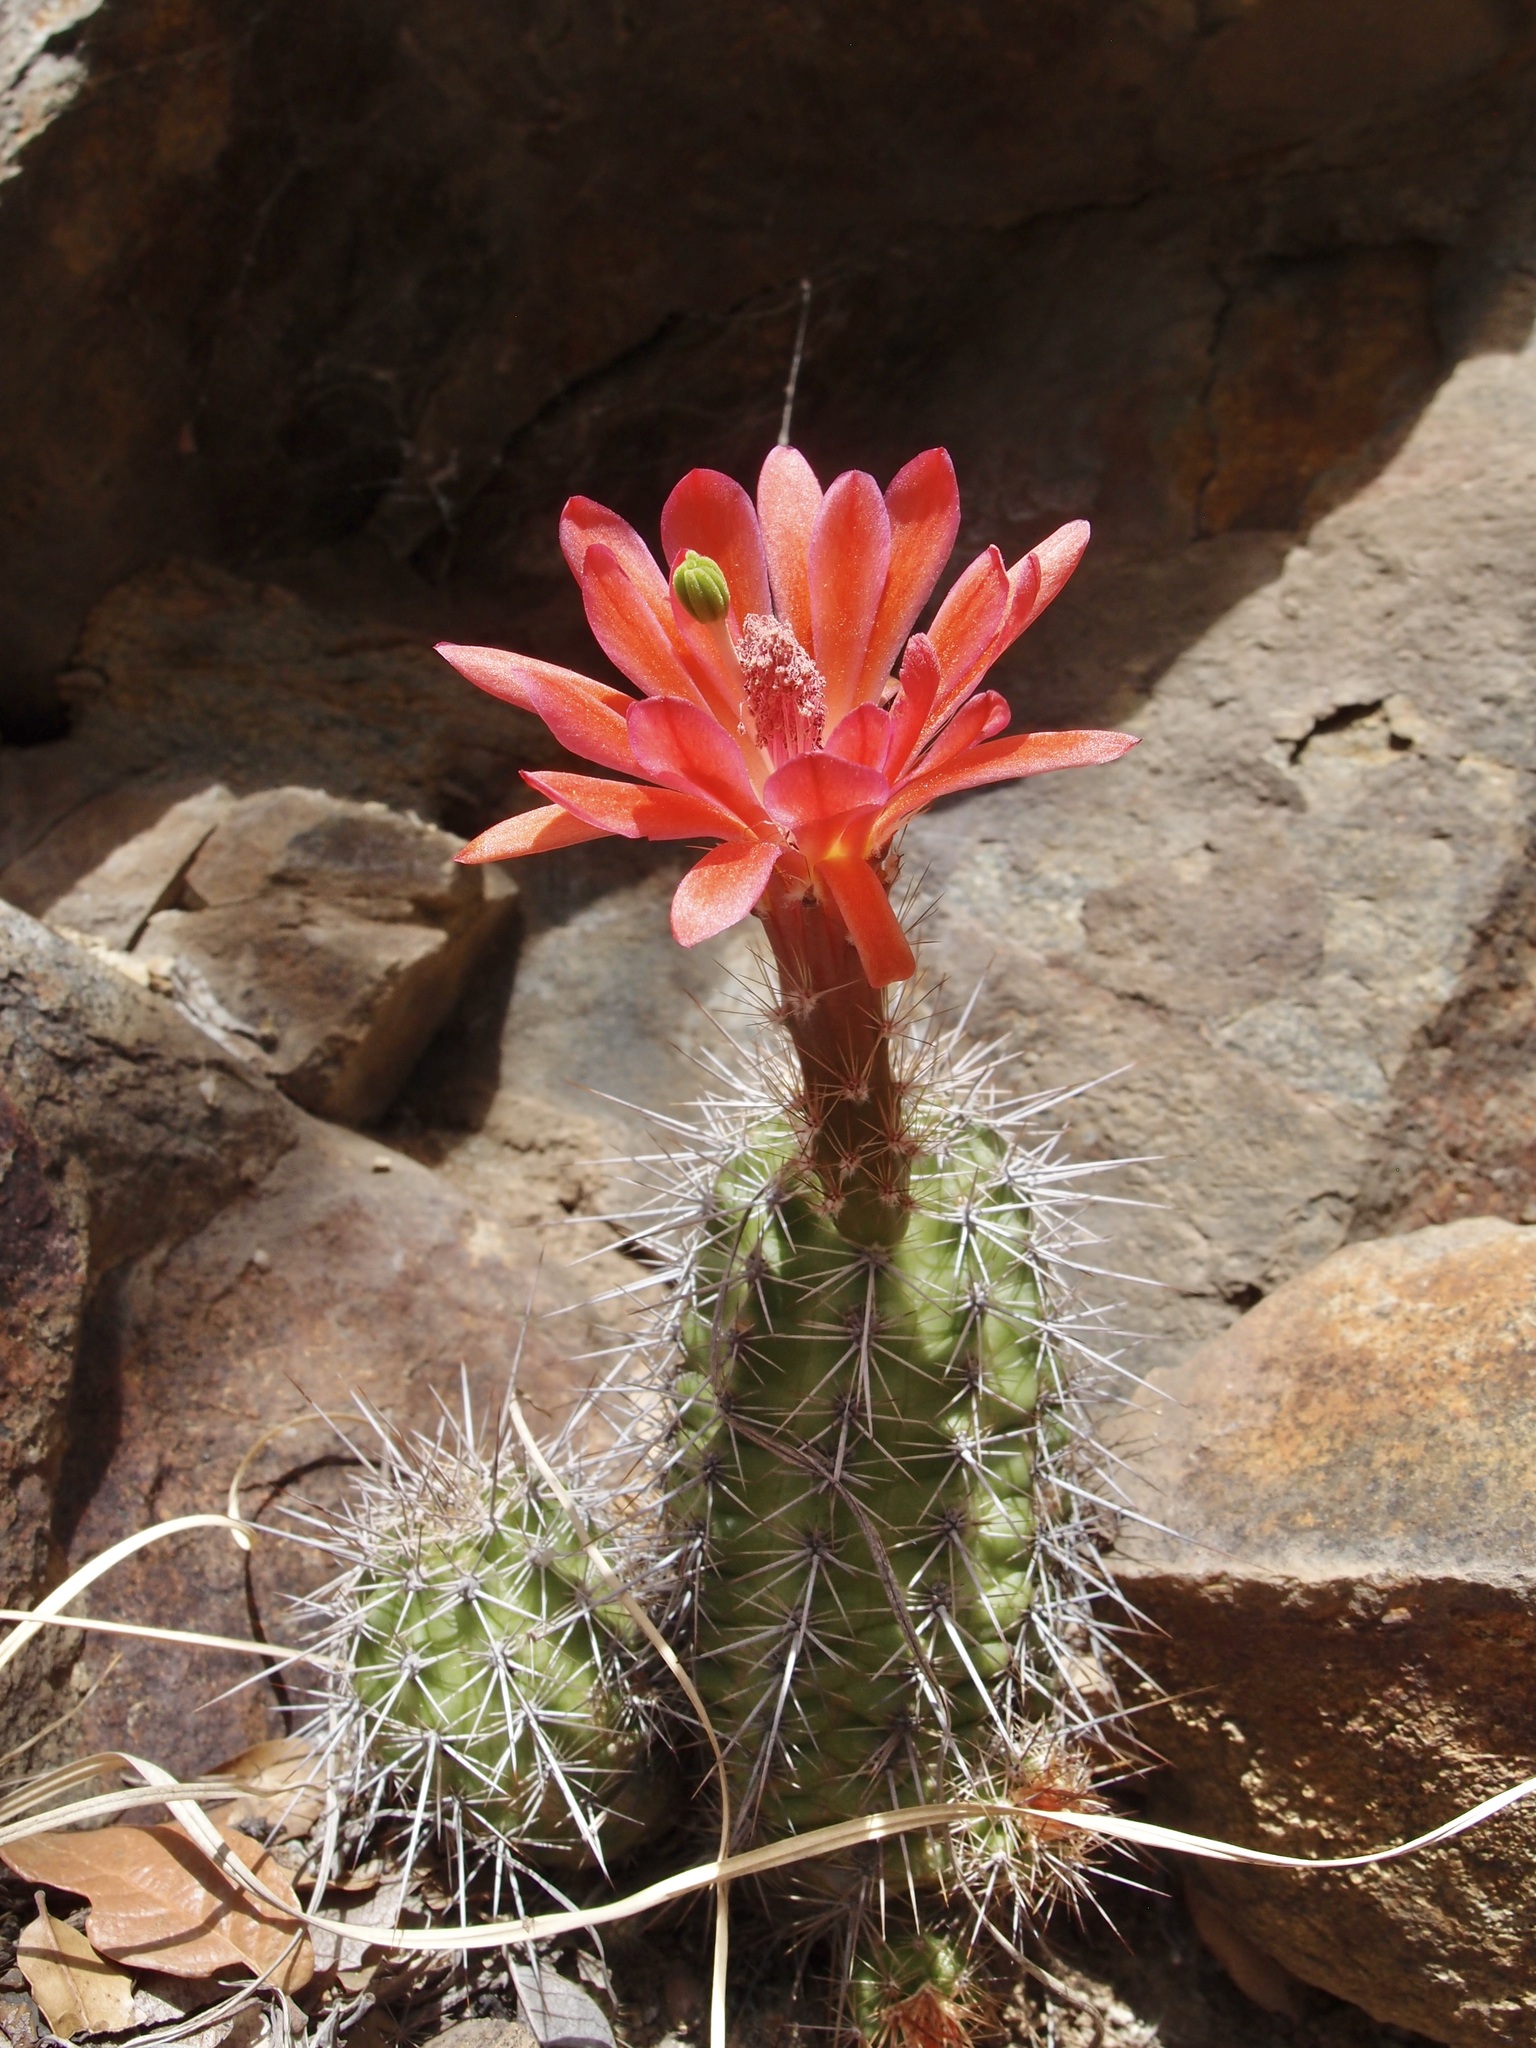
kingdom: Plantae
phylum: Tracheophyta
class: Magnoliopsida
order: Caryophyllales
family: Cactaceae
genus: Echinocereus
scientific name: Echinocereus coccineus
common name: Scarlet hedgehog cactus
